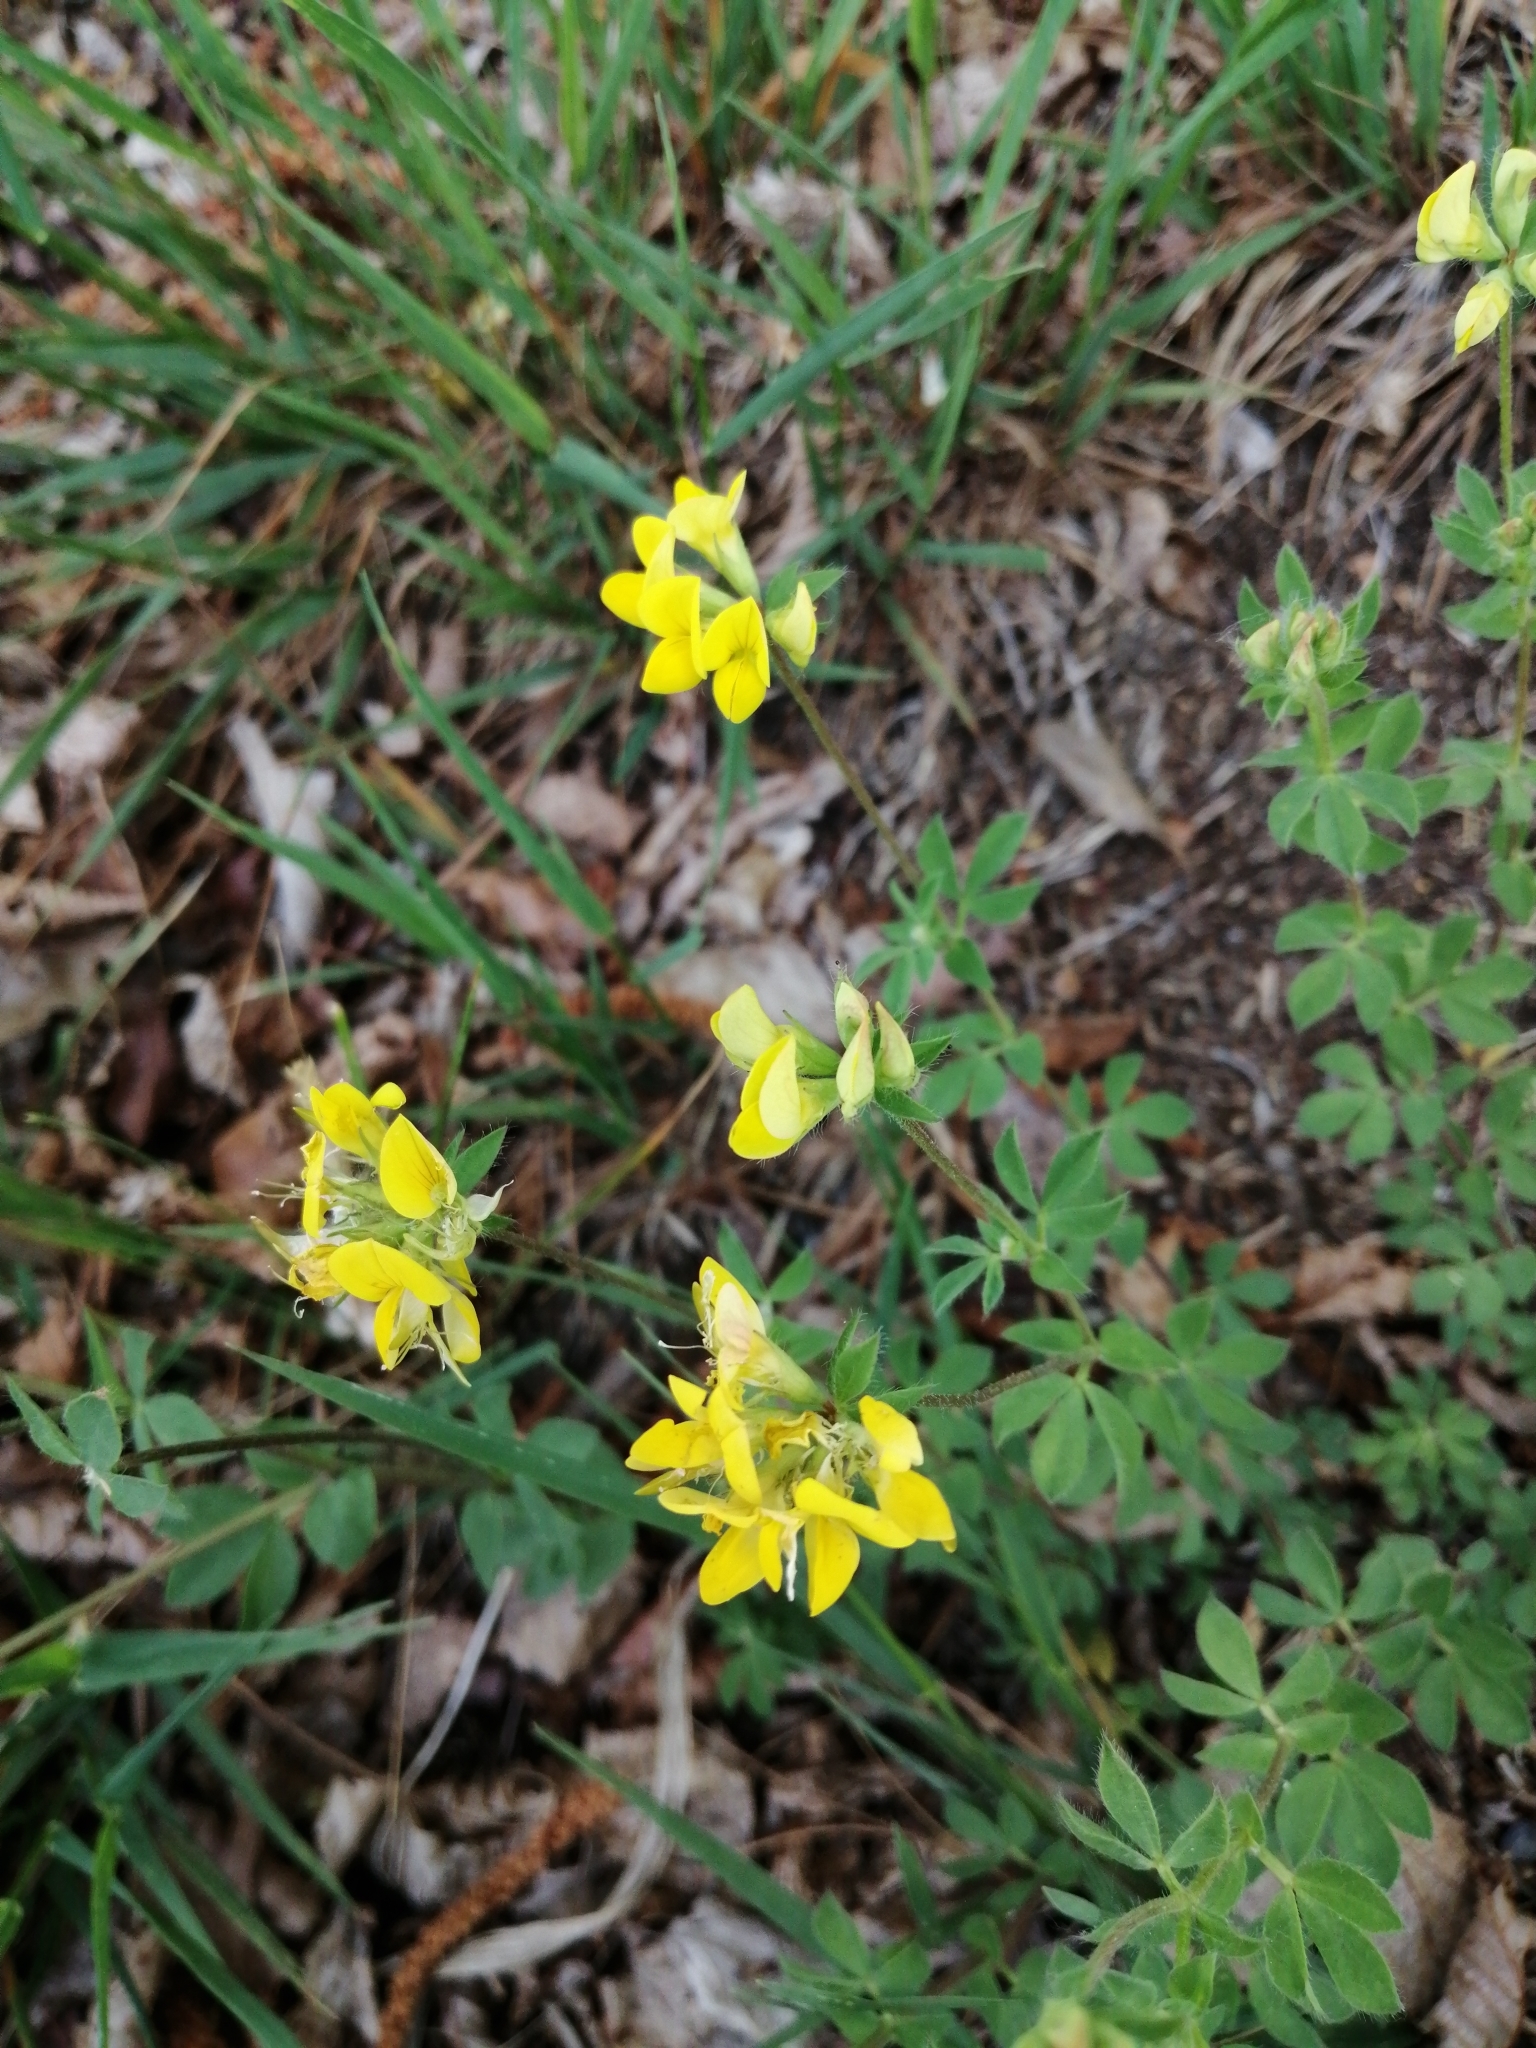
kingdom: Plantae
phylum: Tracheophyta
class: Magnoliopsida
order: Fabales
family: Fabaceae
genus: Lotus
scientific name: Lotus corniculatus
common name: Common bird's-foot-trefoil
